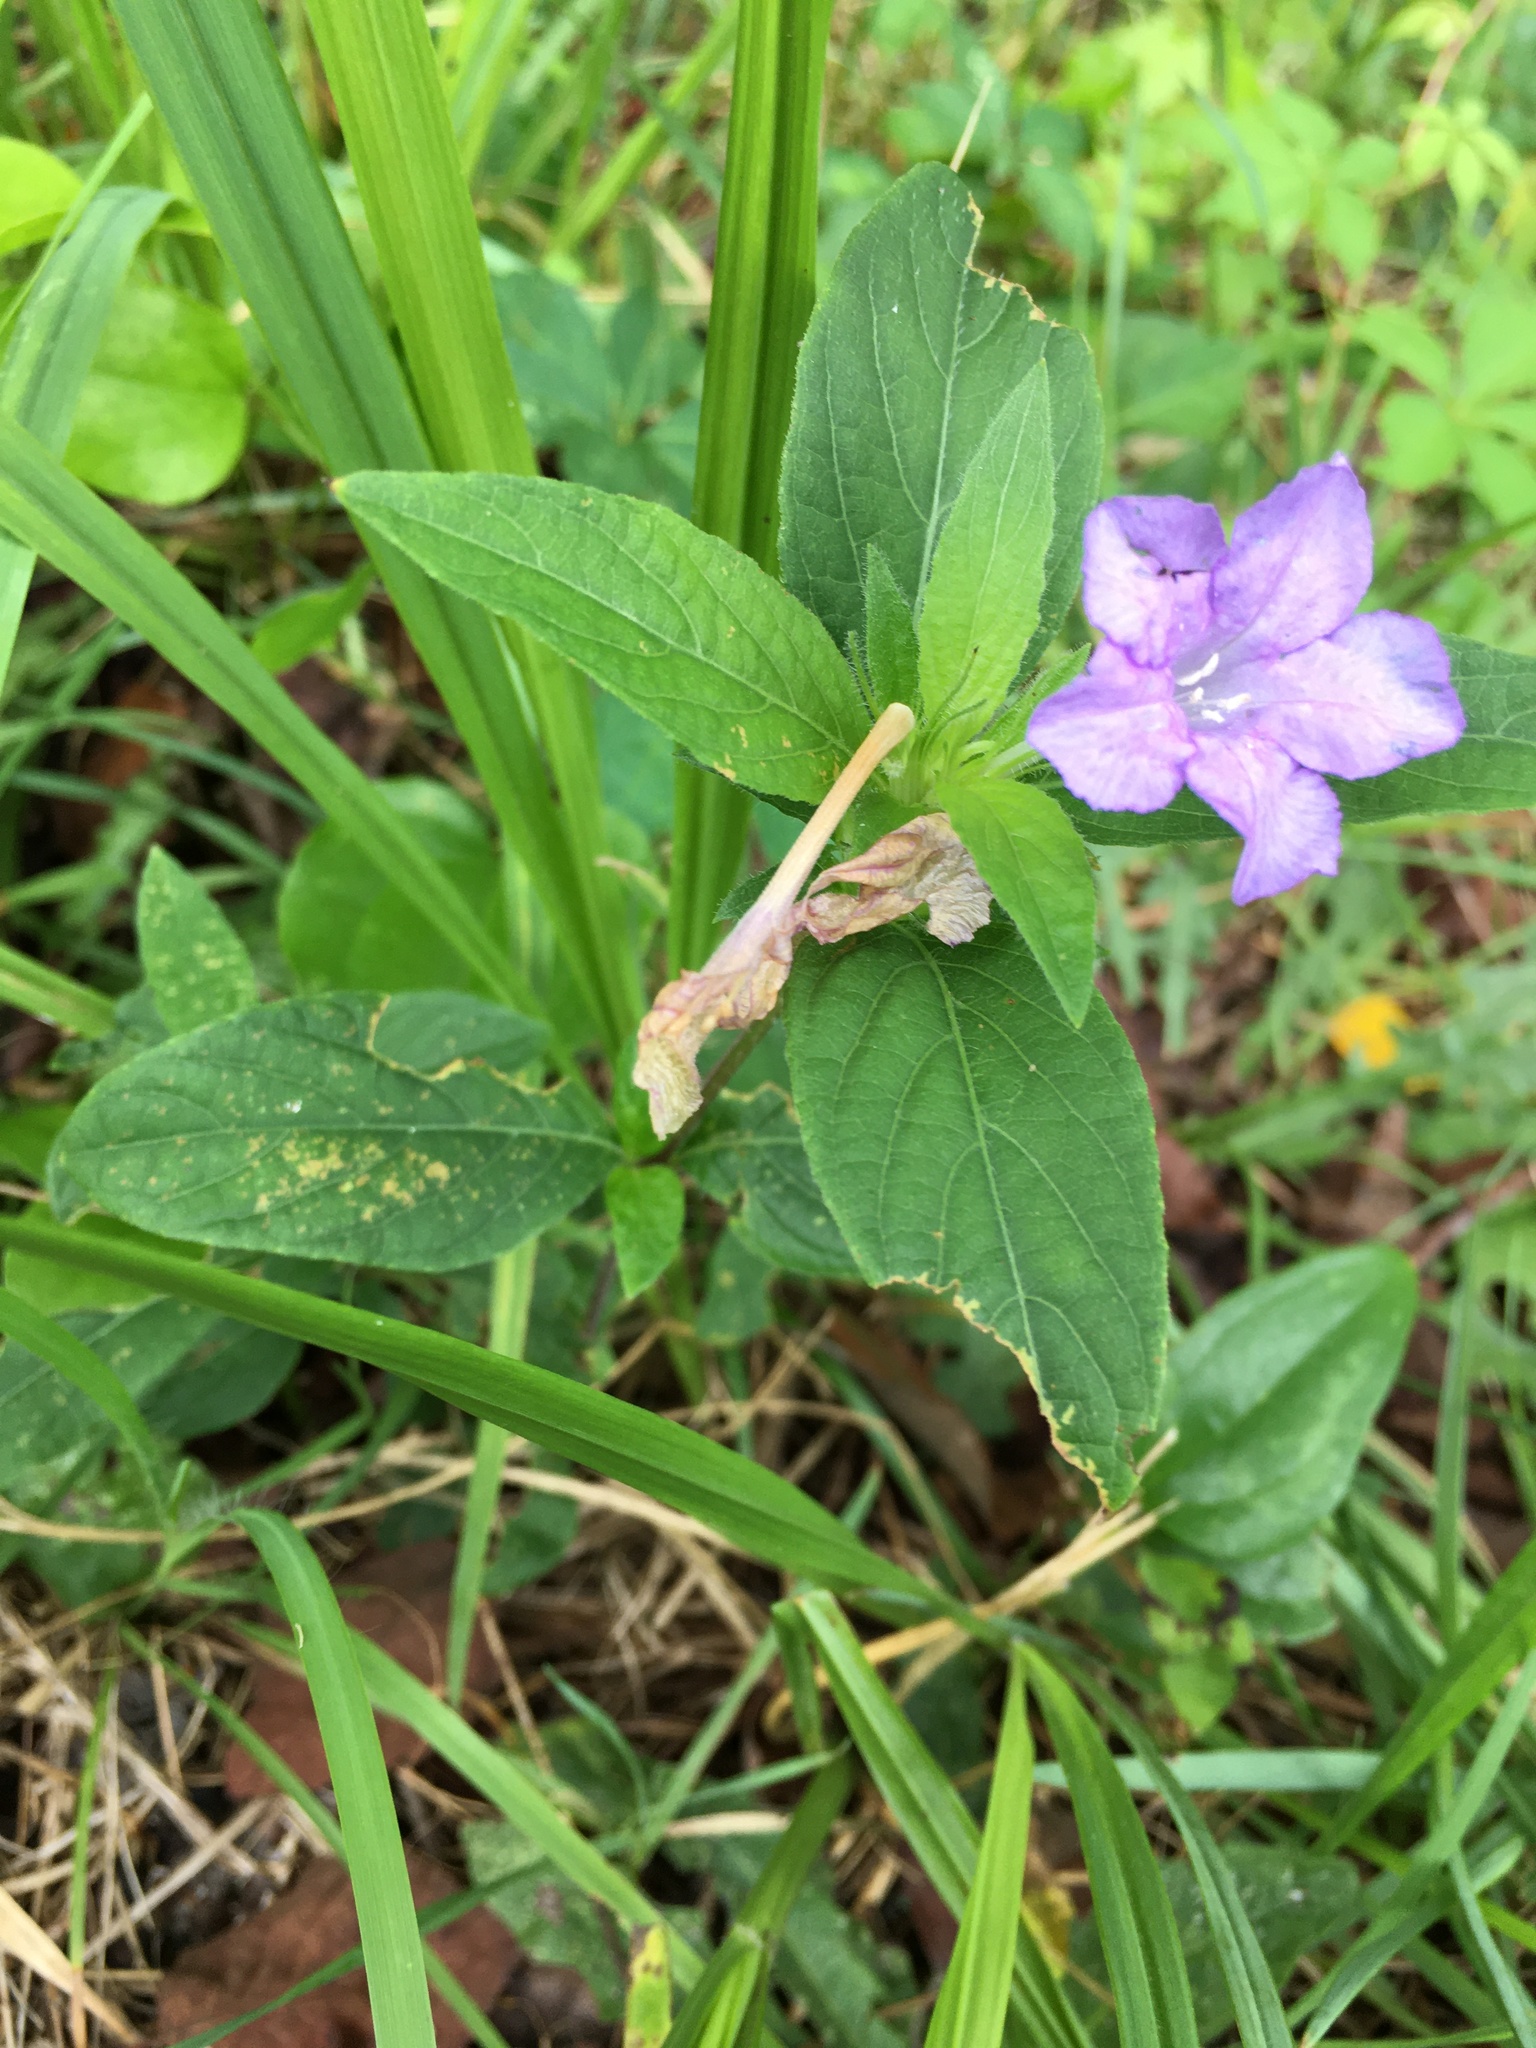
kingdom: Plantae
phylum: Tracheophyta
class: Magnoliopsida
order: Lamiales
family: Acanthaceae
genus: Ruellia
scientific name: Ruellia caroliniensis
